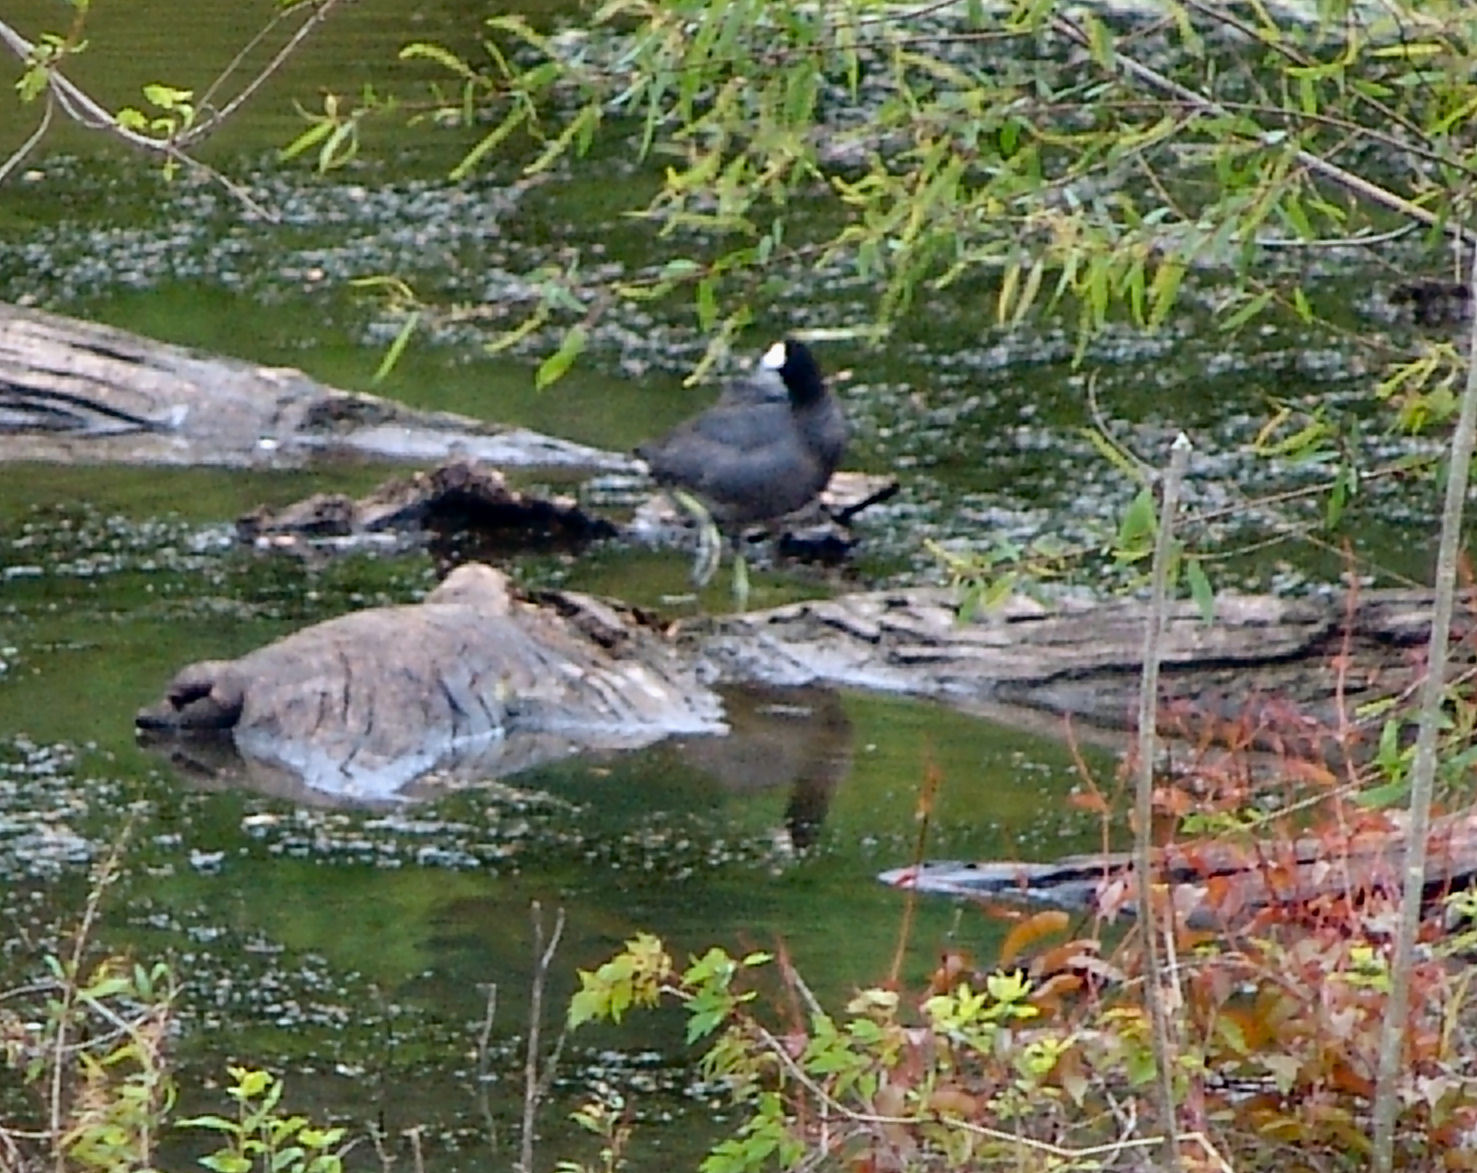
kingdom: Animalia
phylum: Chordata
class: Aves
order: Gruiformes
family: Rallidae
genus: Fulica
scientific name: Fulica americana
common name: American coot
